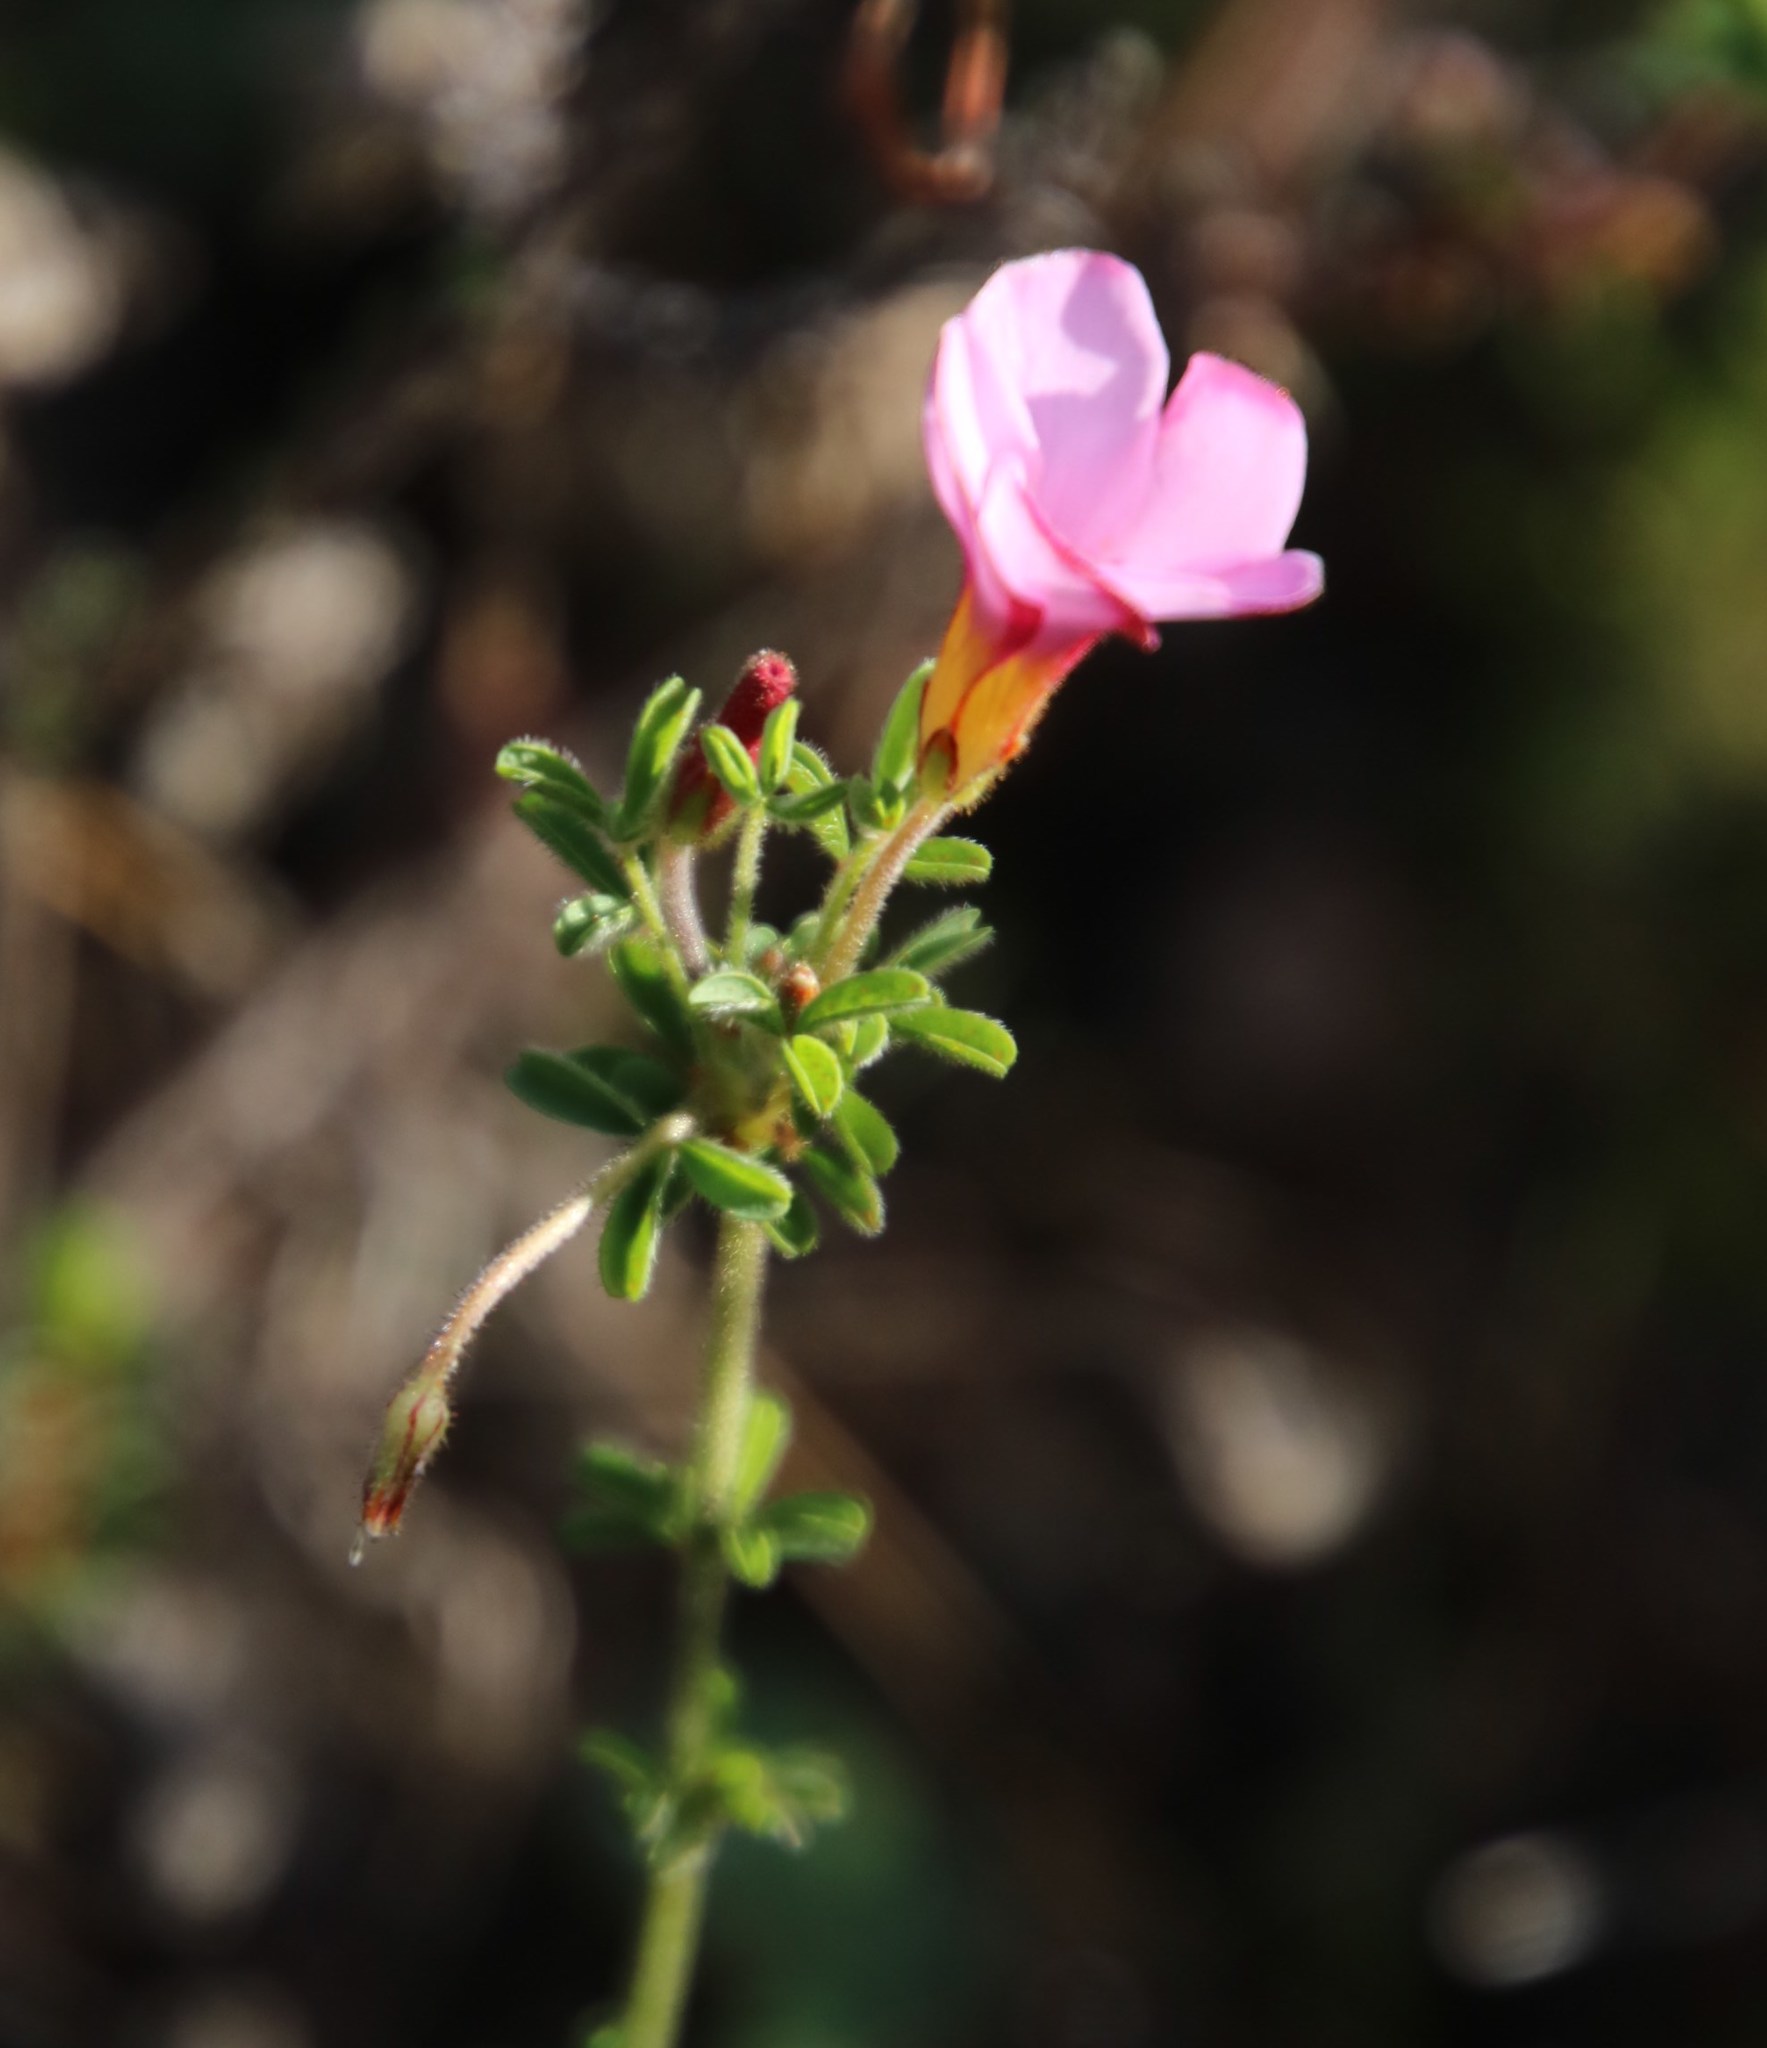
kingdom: Plantae
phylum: Tracheophyta
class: Magnoliopsida
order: Oxalidales
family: Oxalidaceae
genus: Oxalis
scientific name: Oxalis multicaulis
